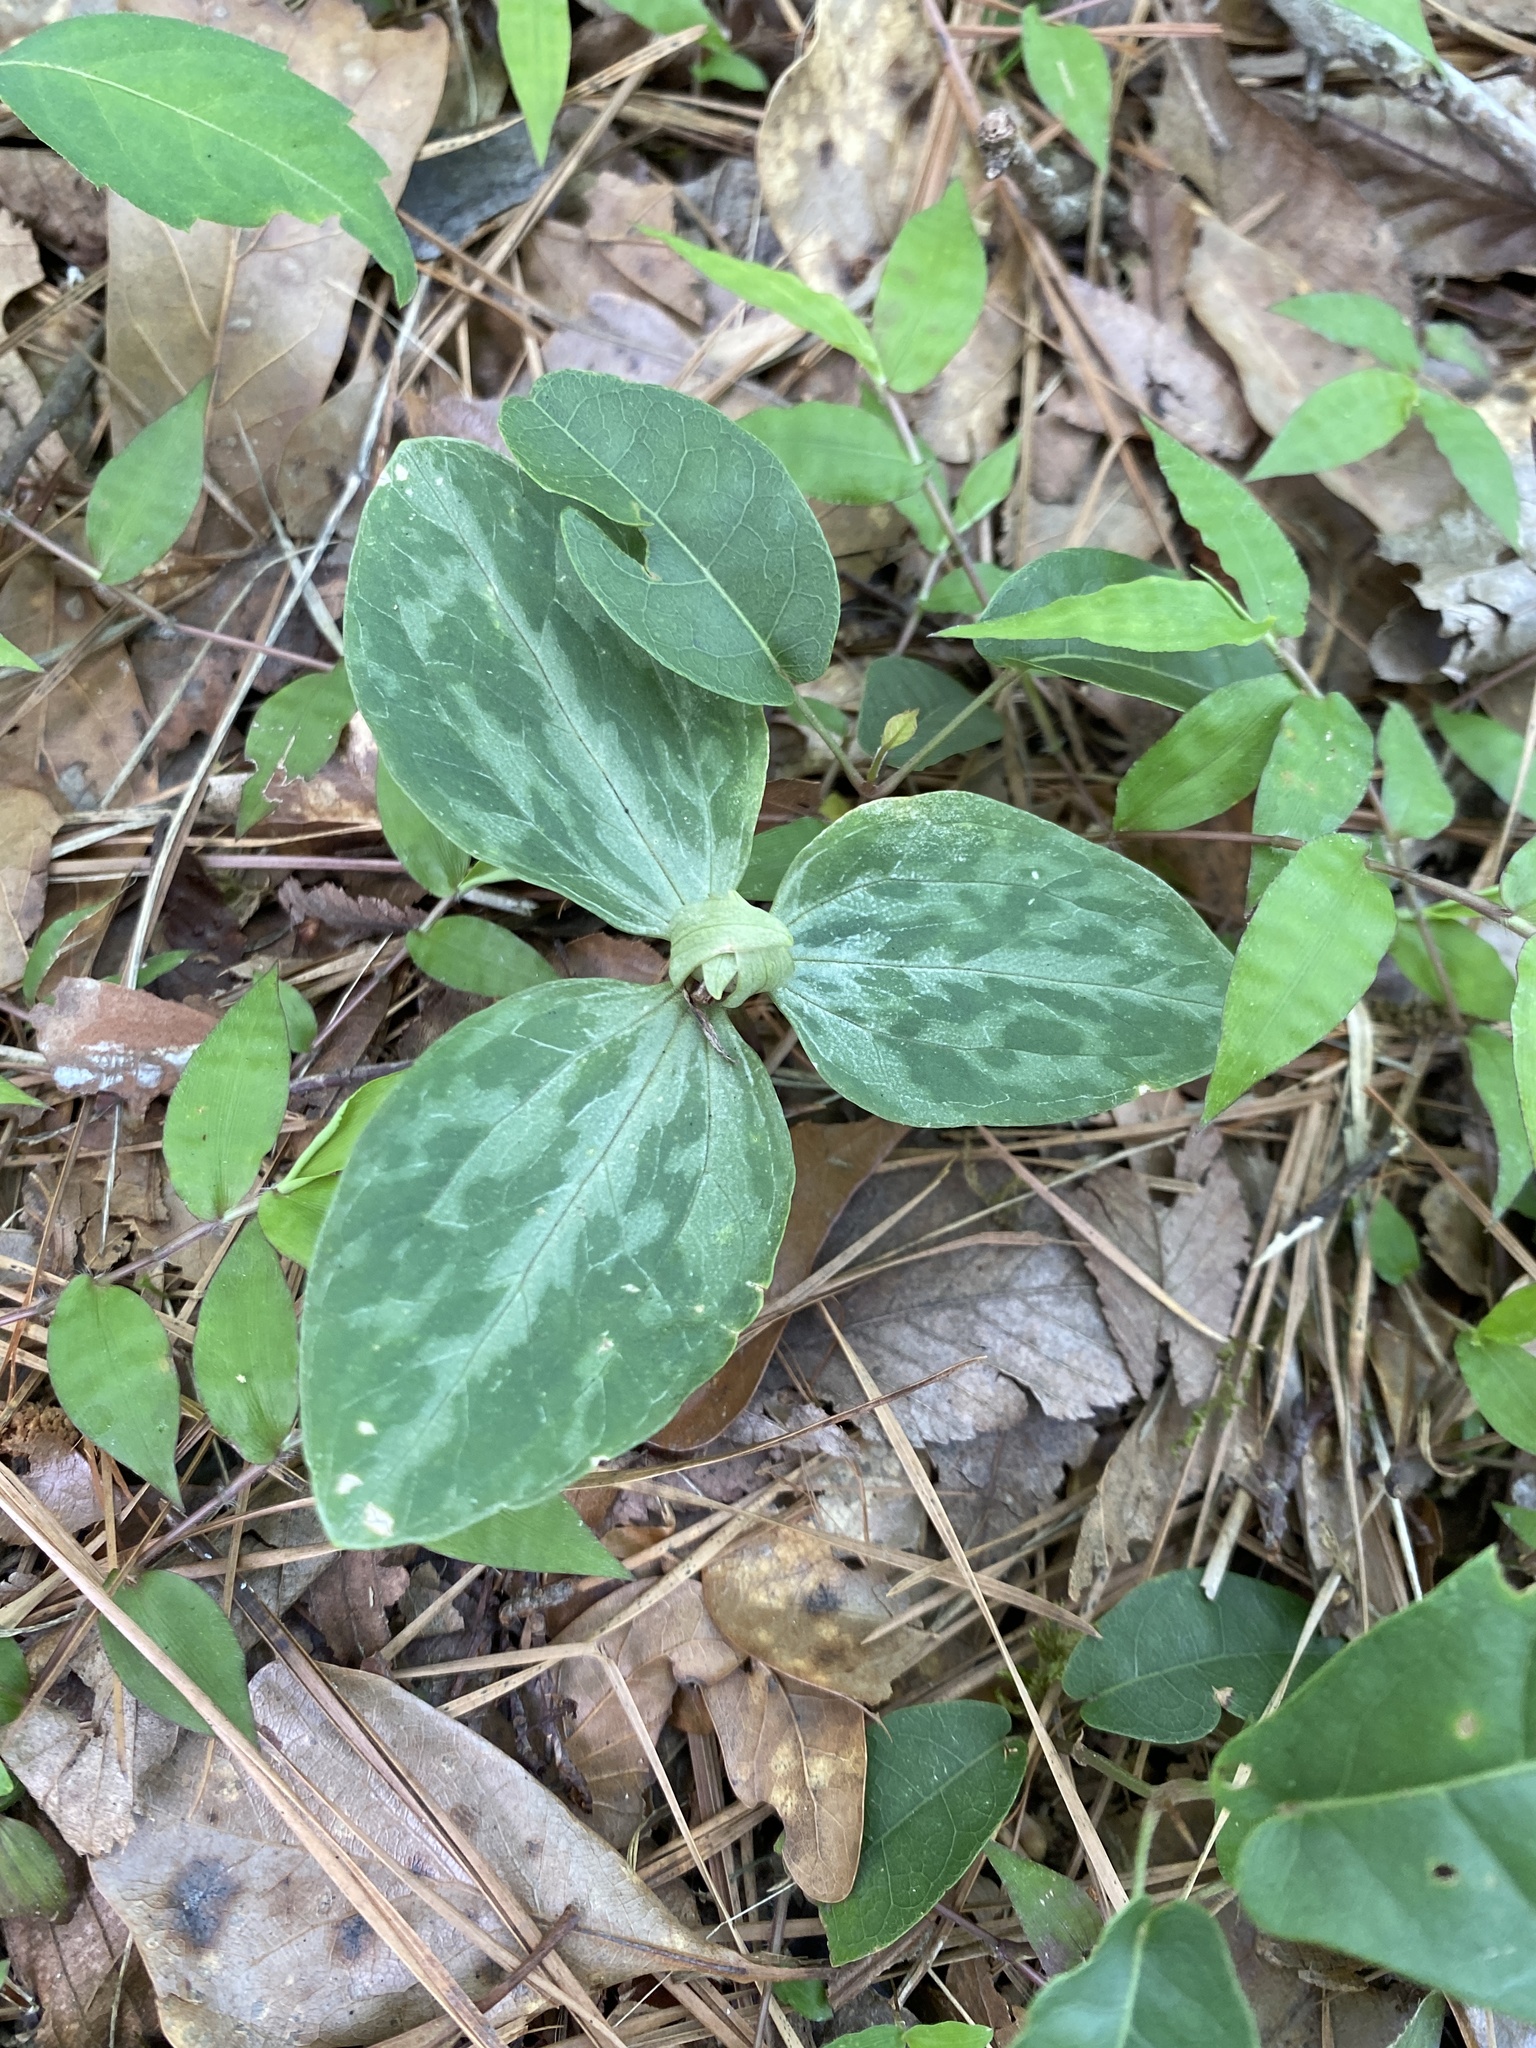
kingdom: Plantae
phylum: Tracheophyta
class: Liliopsida
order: Liliales
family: Melanthiaceae
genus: Trillium
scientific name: Trillium foetidissimum
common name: Mississippi river trillium
